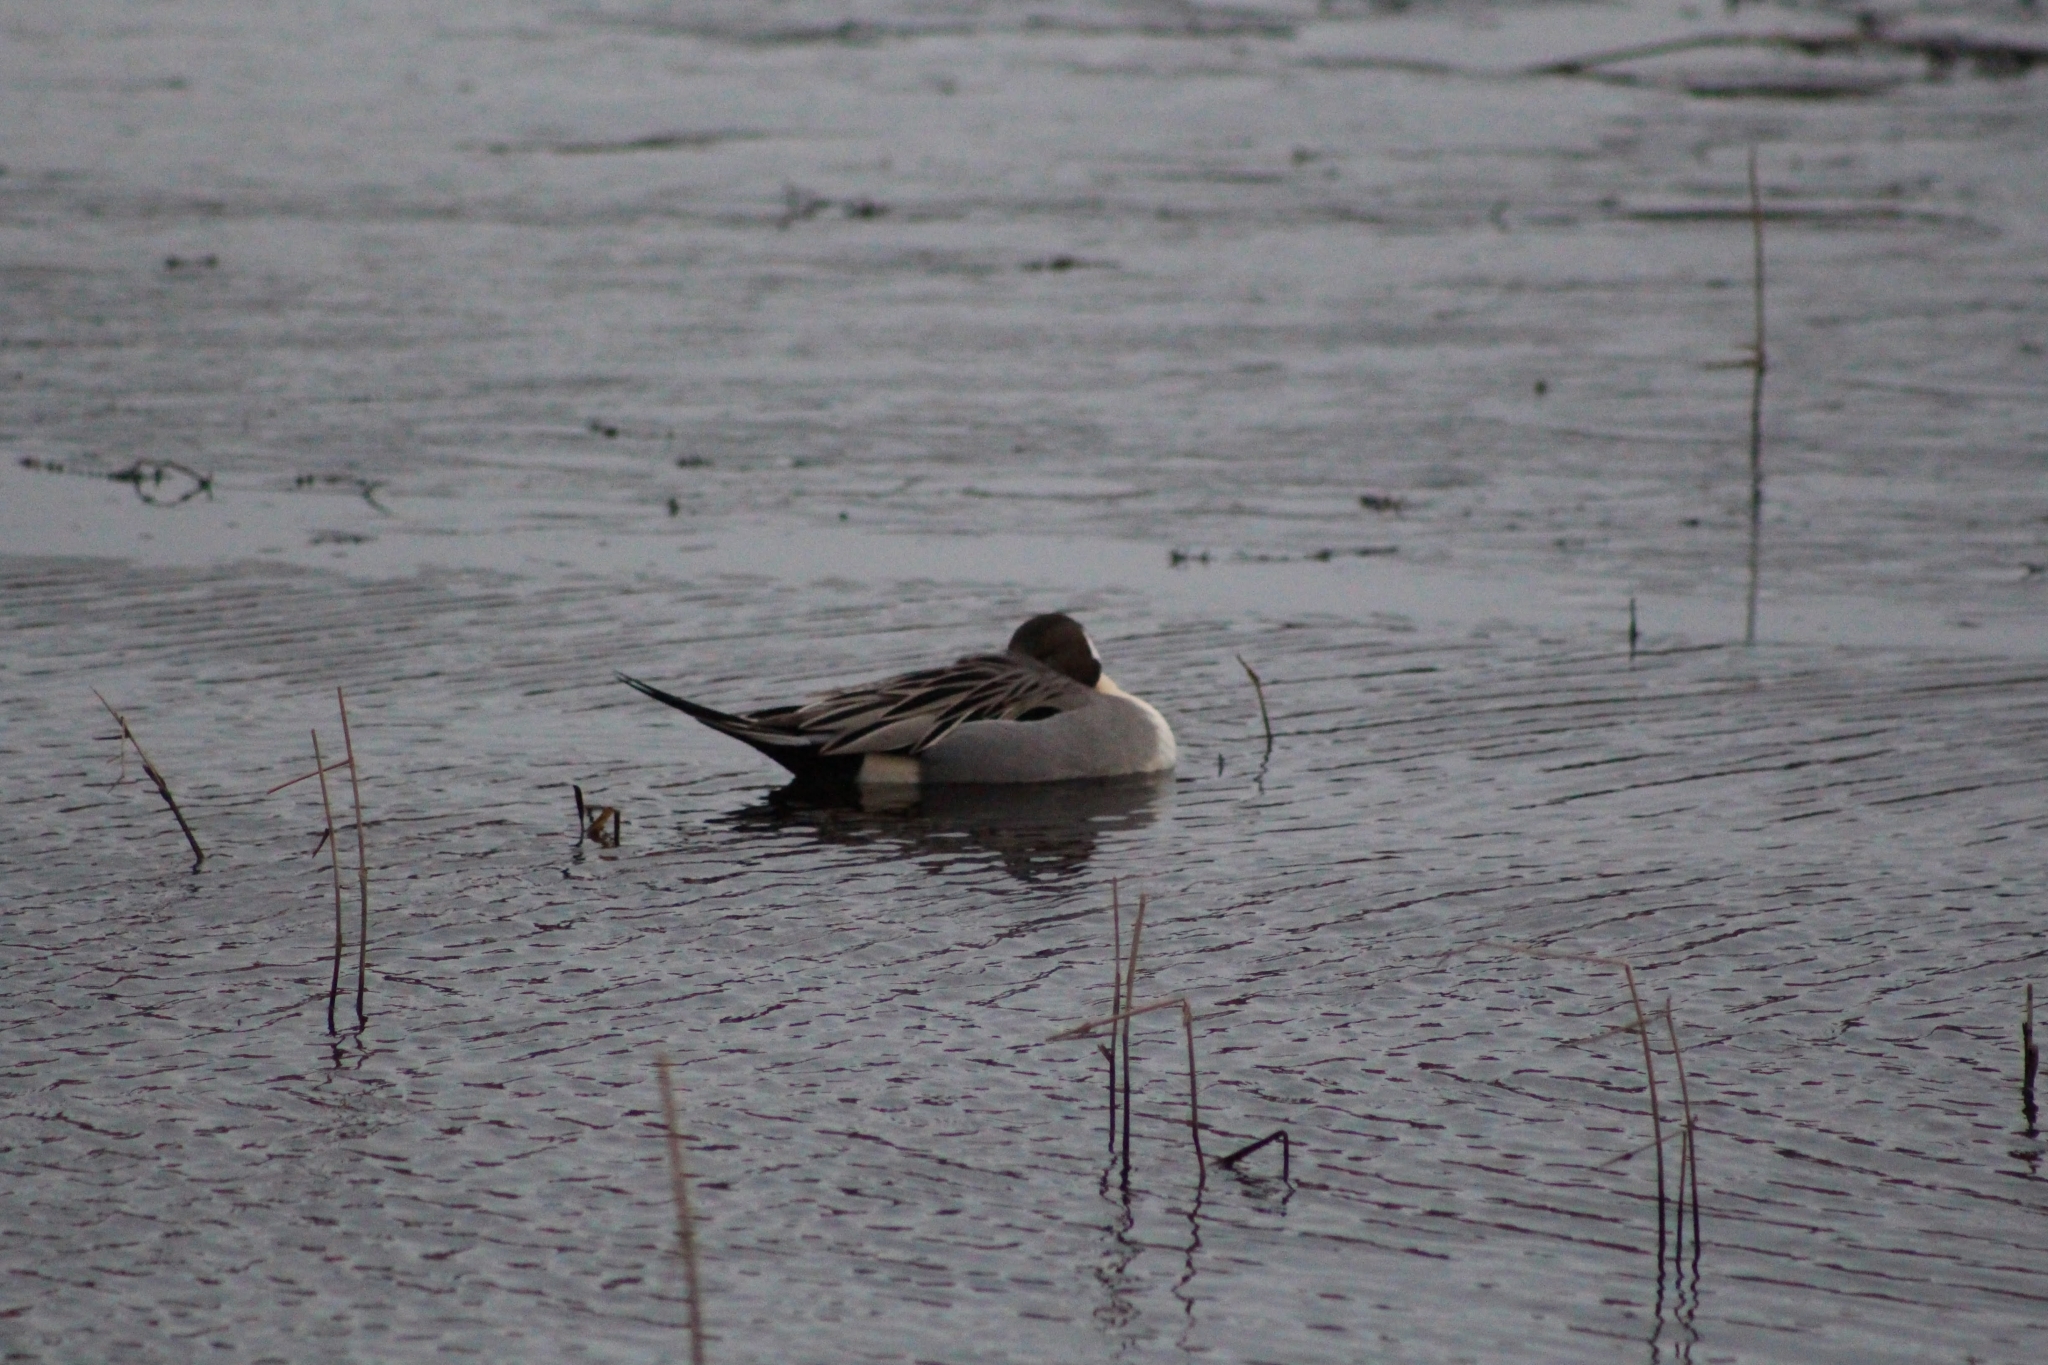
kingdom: Animalia
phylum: Chordata
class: Aves
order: Anseriformes
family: Anatidae
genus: Anas
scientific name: Anas acuta
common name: Northern pintail
